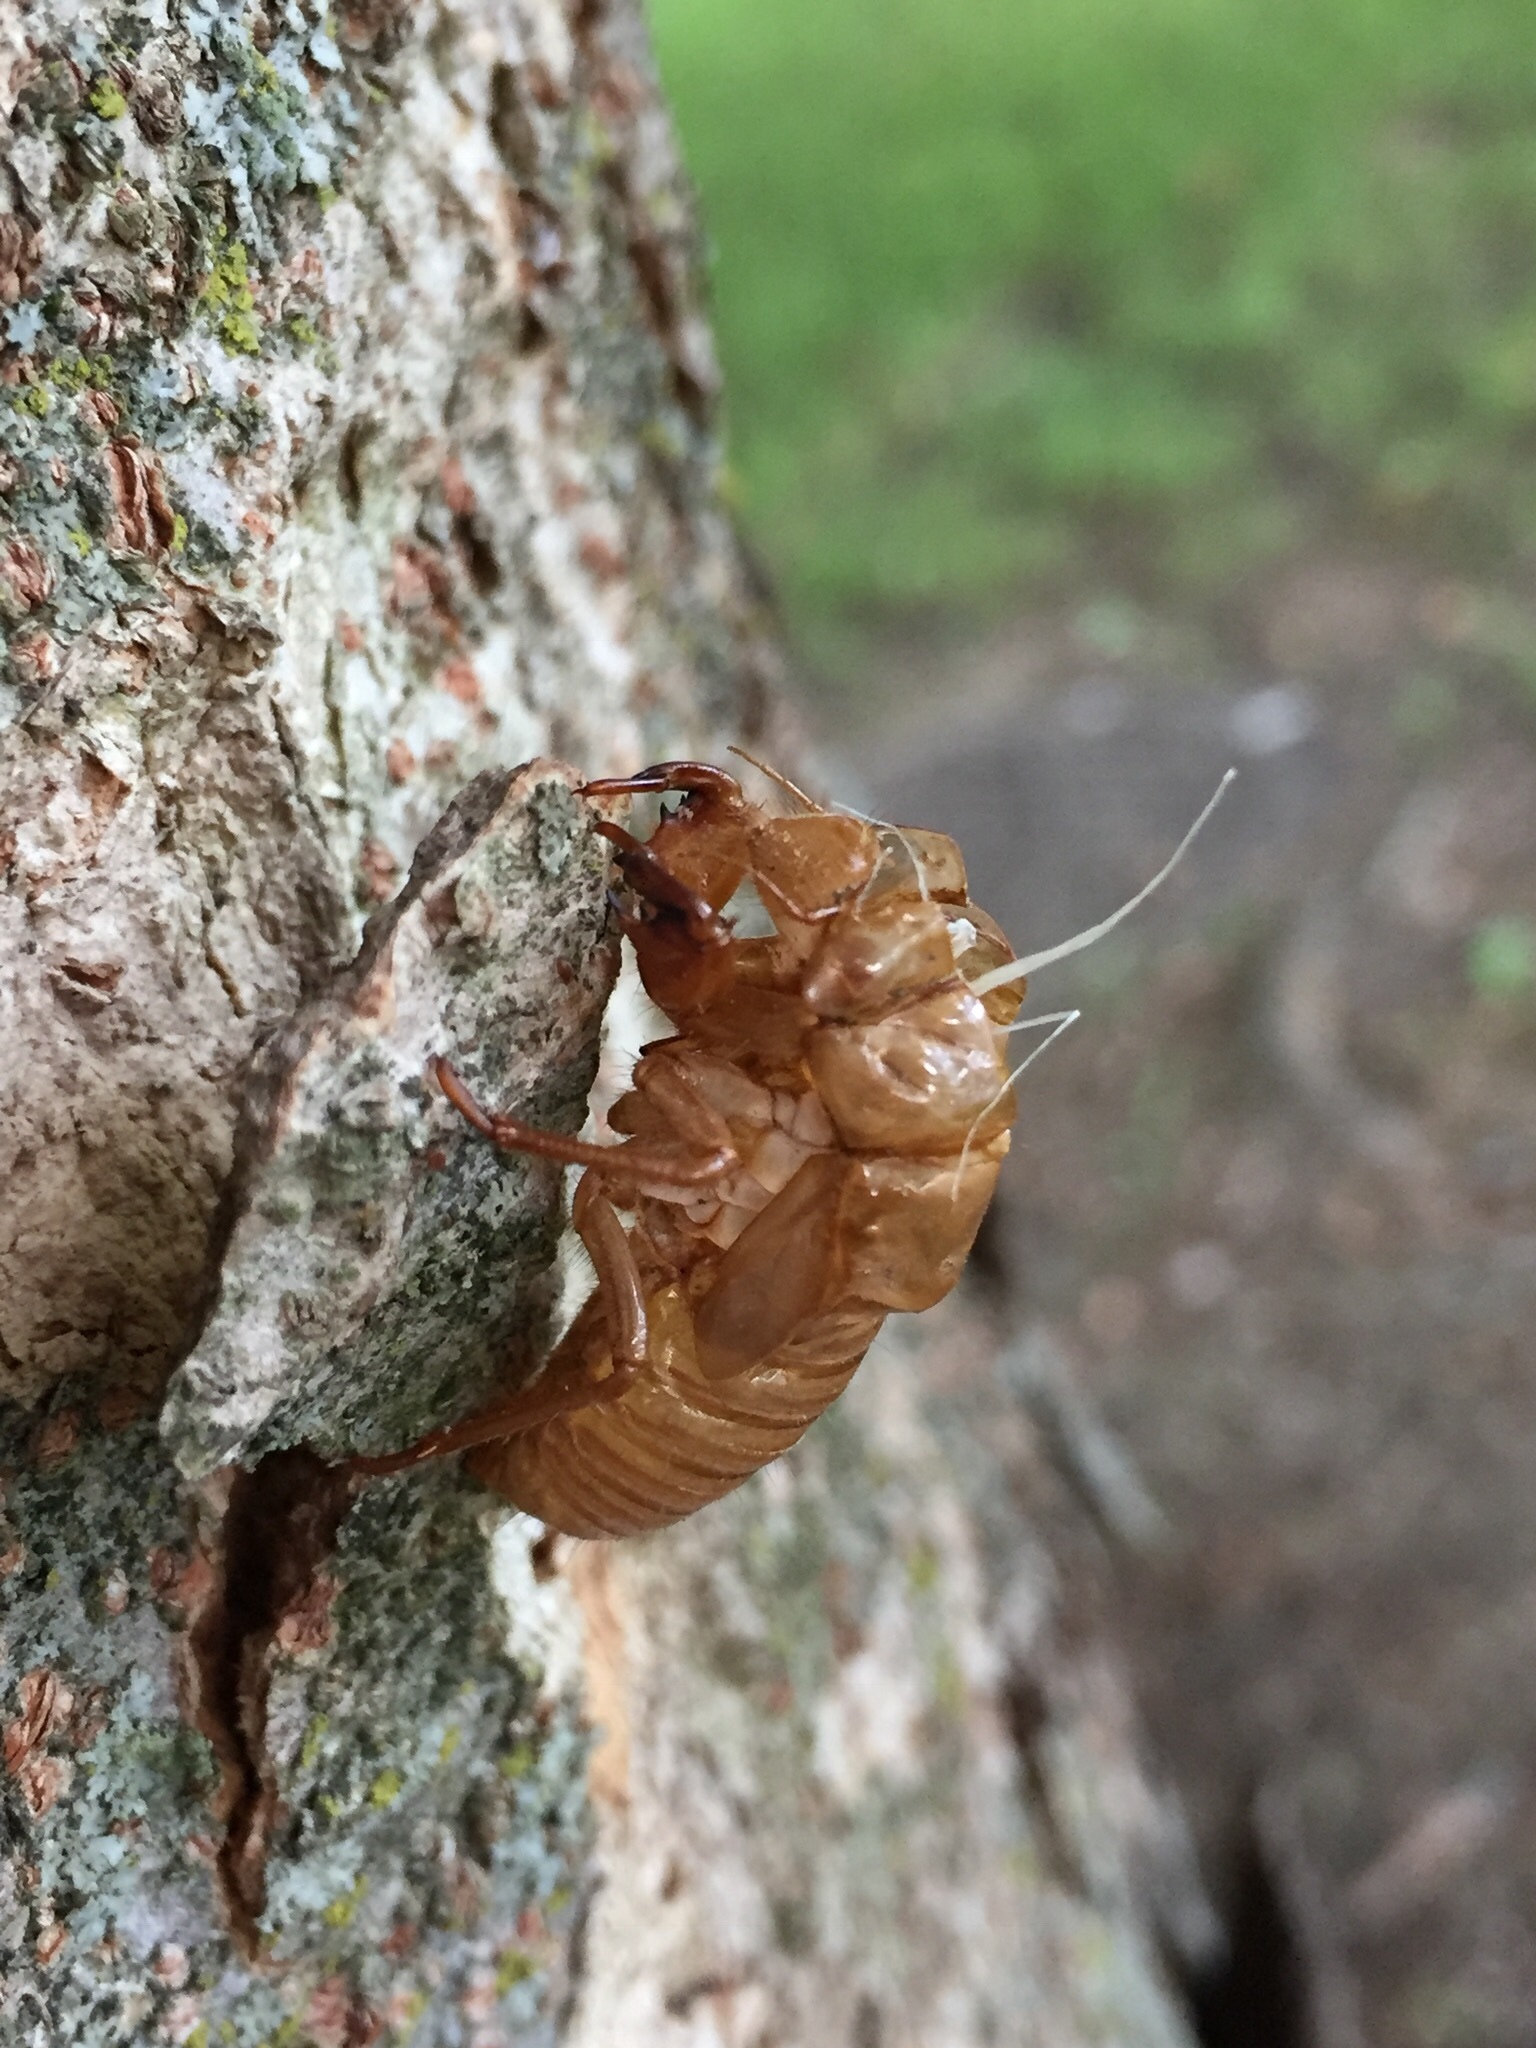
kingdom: Animalia
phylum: Arthropoda
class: Insecta
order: Hemiptera
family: Cicadidae
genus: Magicicada
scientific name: Magicicada
